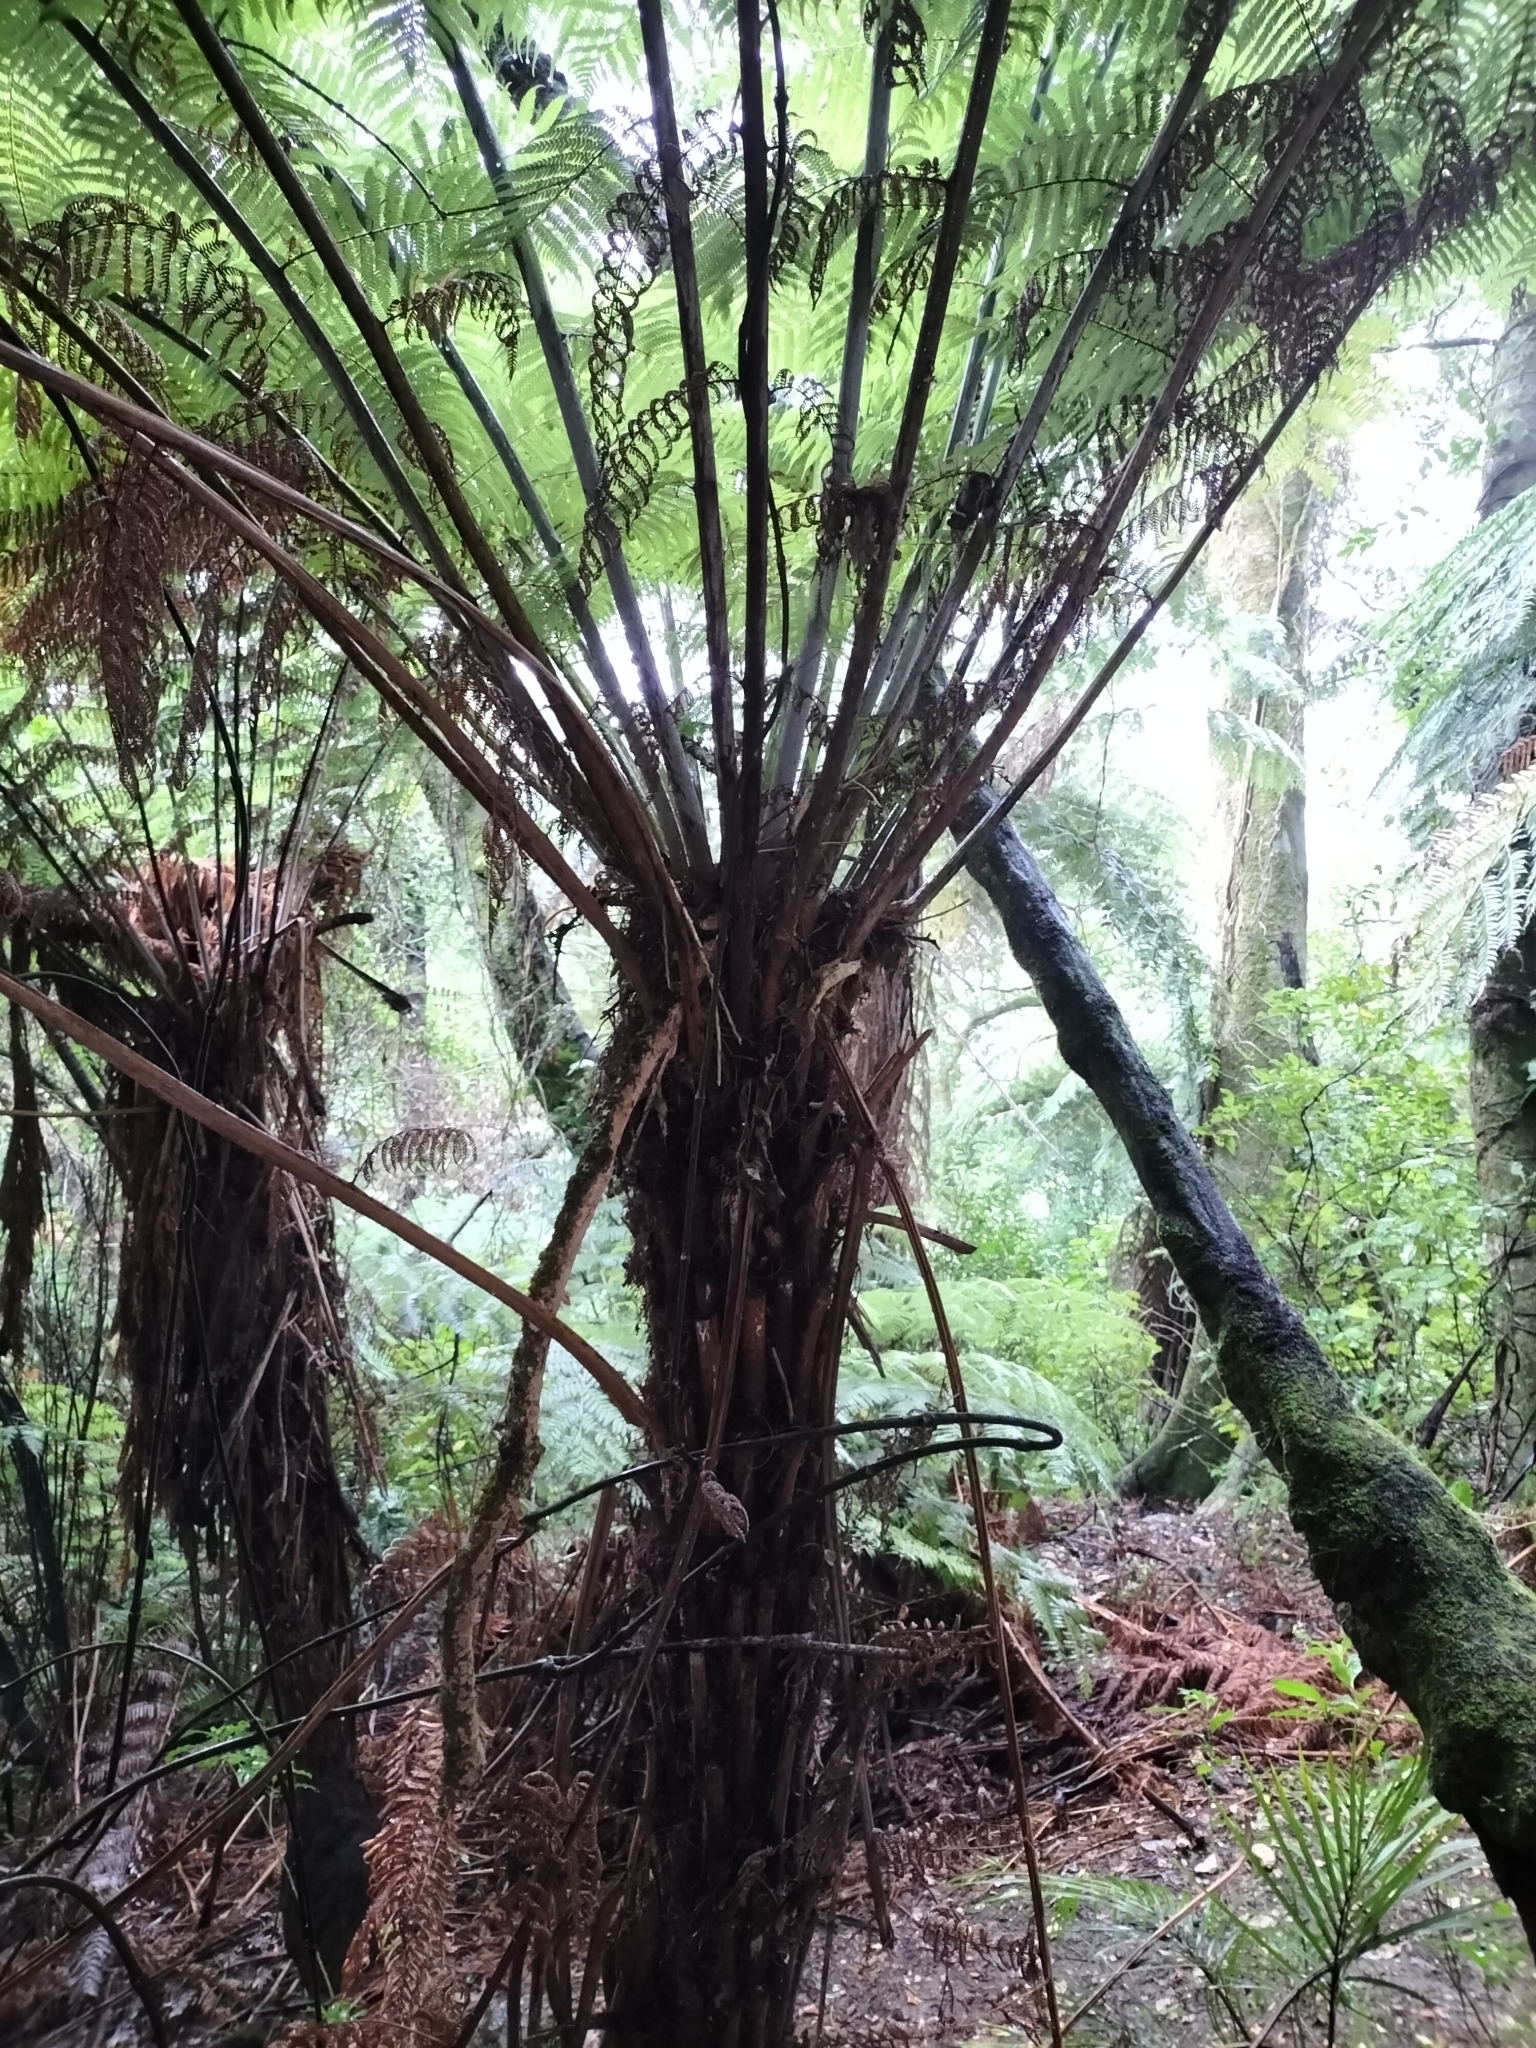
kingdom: Plantae
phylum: Tracheophyta
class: Polypodiopsida
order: Cyatheales
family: Cyatheaceae
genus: Alsophila
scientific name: Alsophila dealbata
